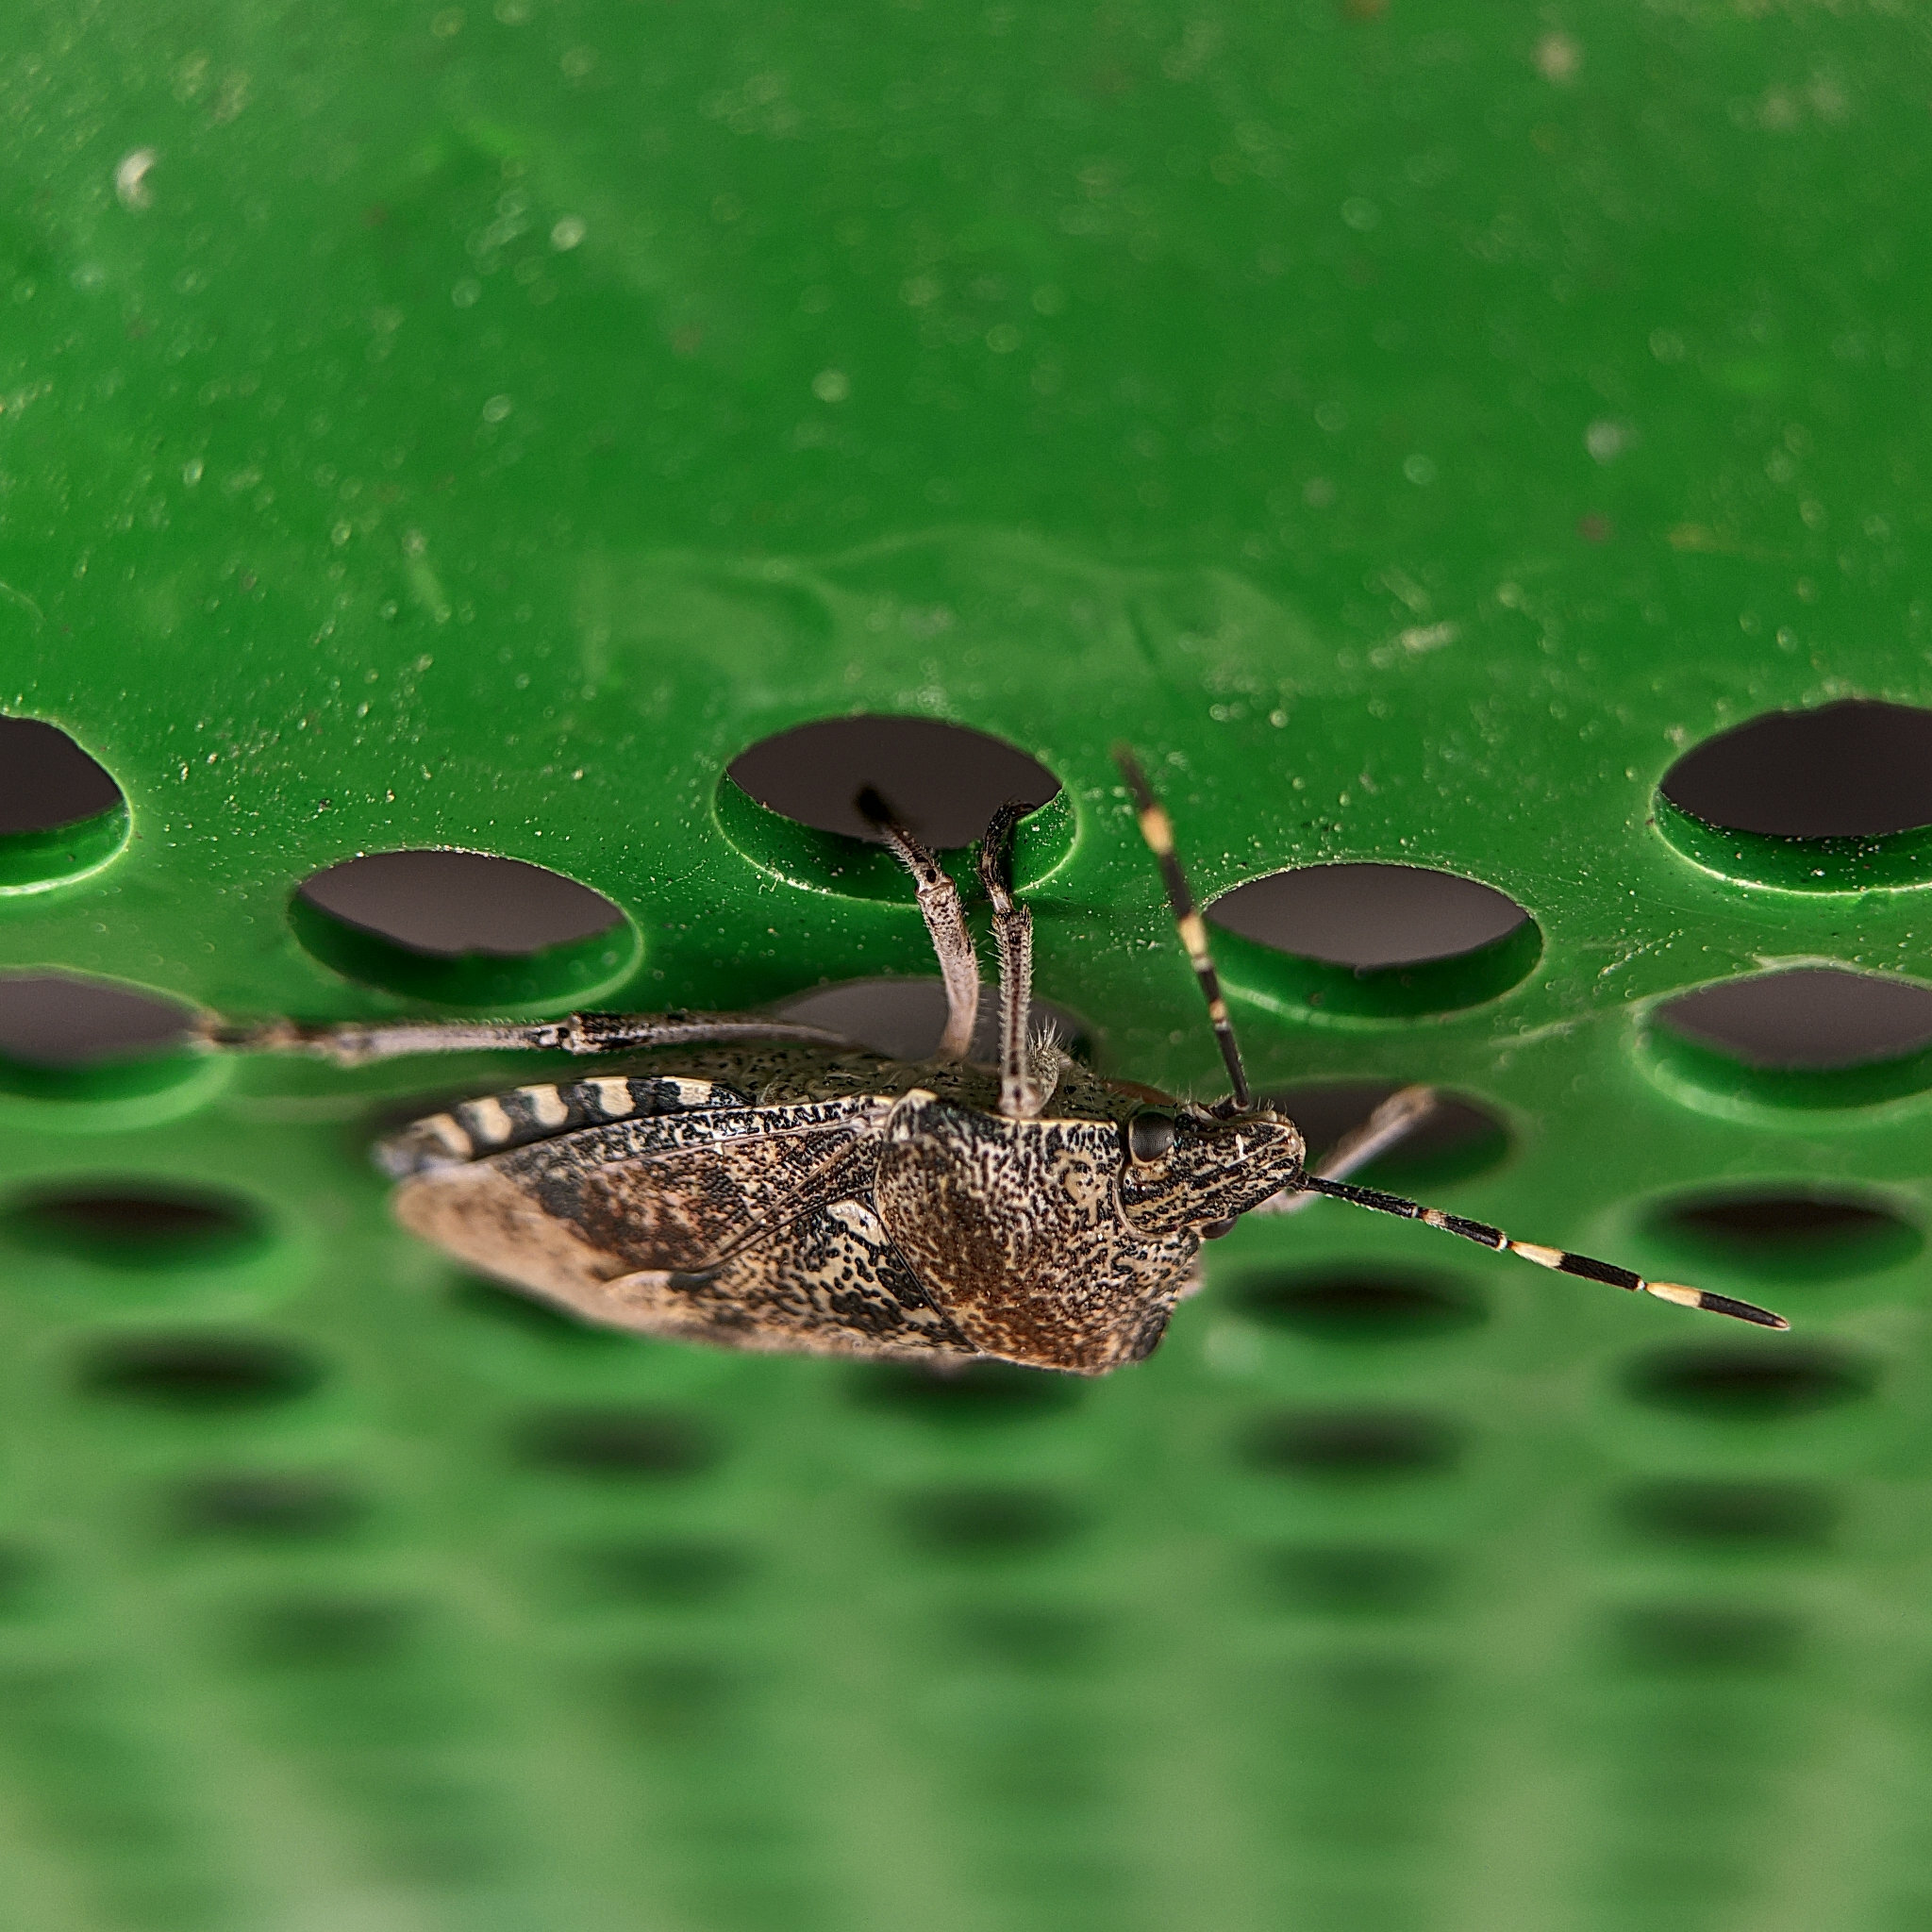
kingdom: Animalia
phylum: Arthropoda
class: Insecta
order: Hemiptera
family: Pentatomidae
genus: Rhaphigaster
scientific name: Rhaphigaster nebulosa
